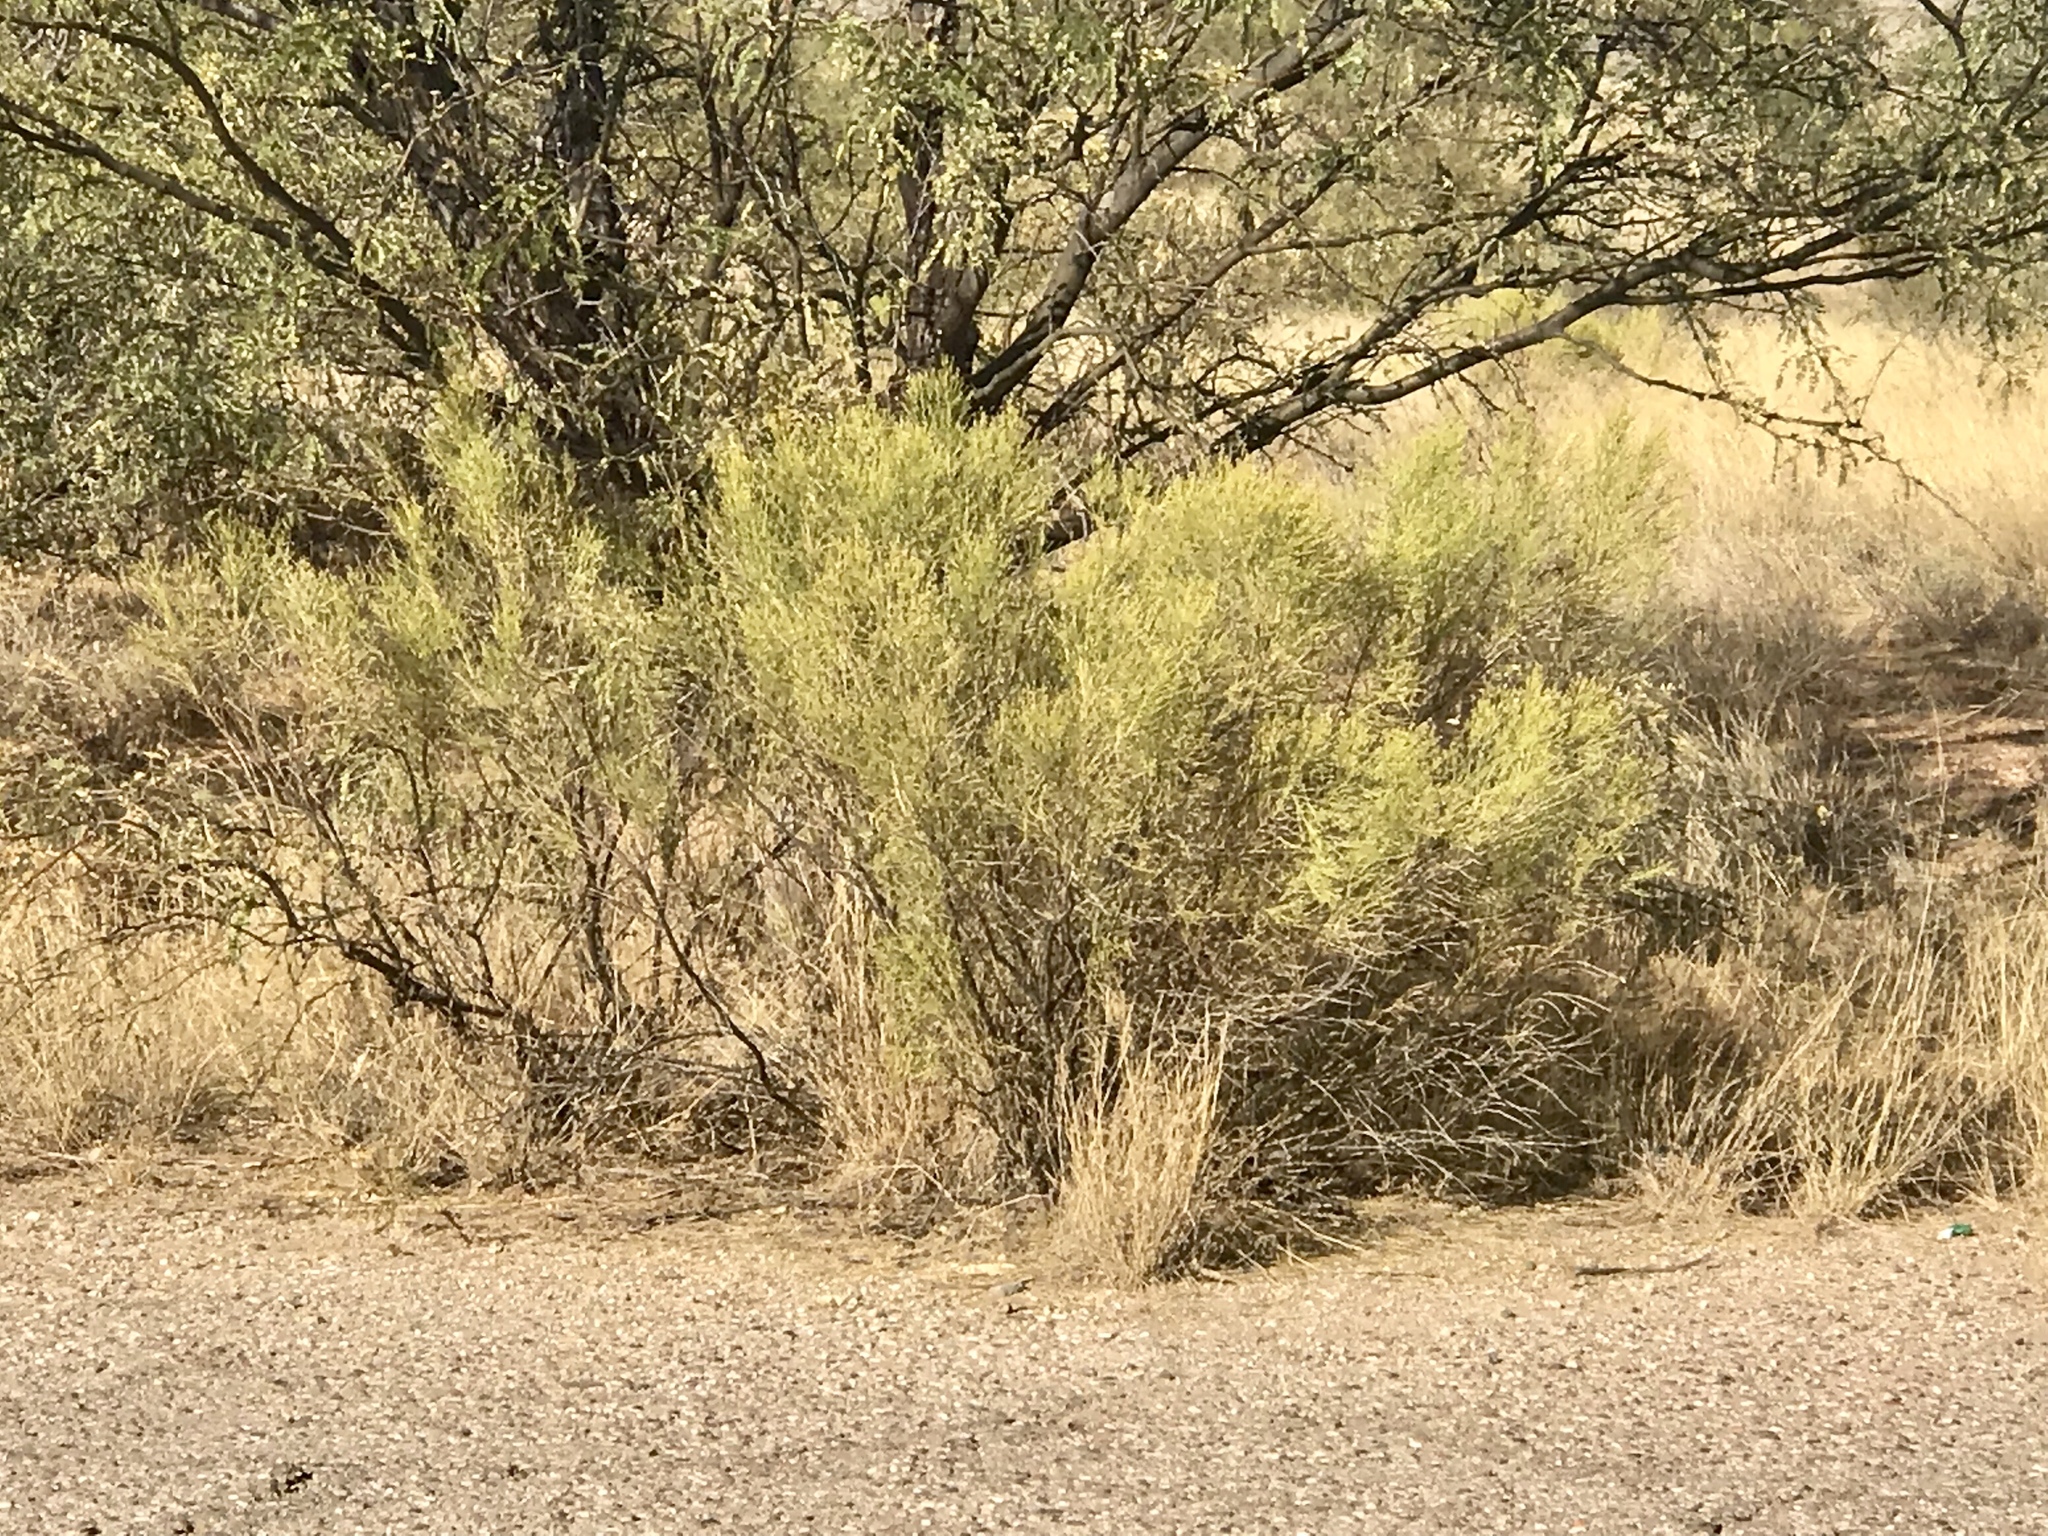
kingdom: Plantae
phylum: Tracheophyta
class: Magnoliopsida
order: Asterales
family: Asteraceae
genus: Baccharis
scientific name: Baccharis sarothroides
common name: Desert-broom
